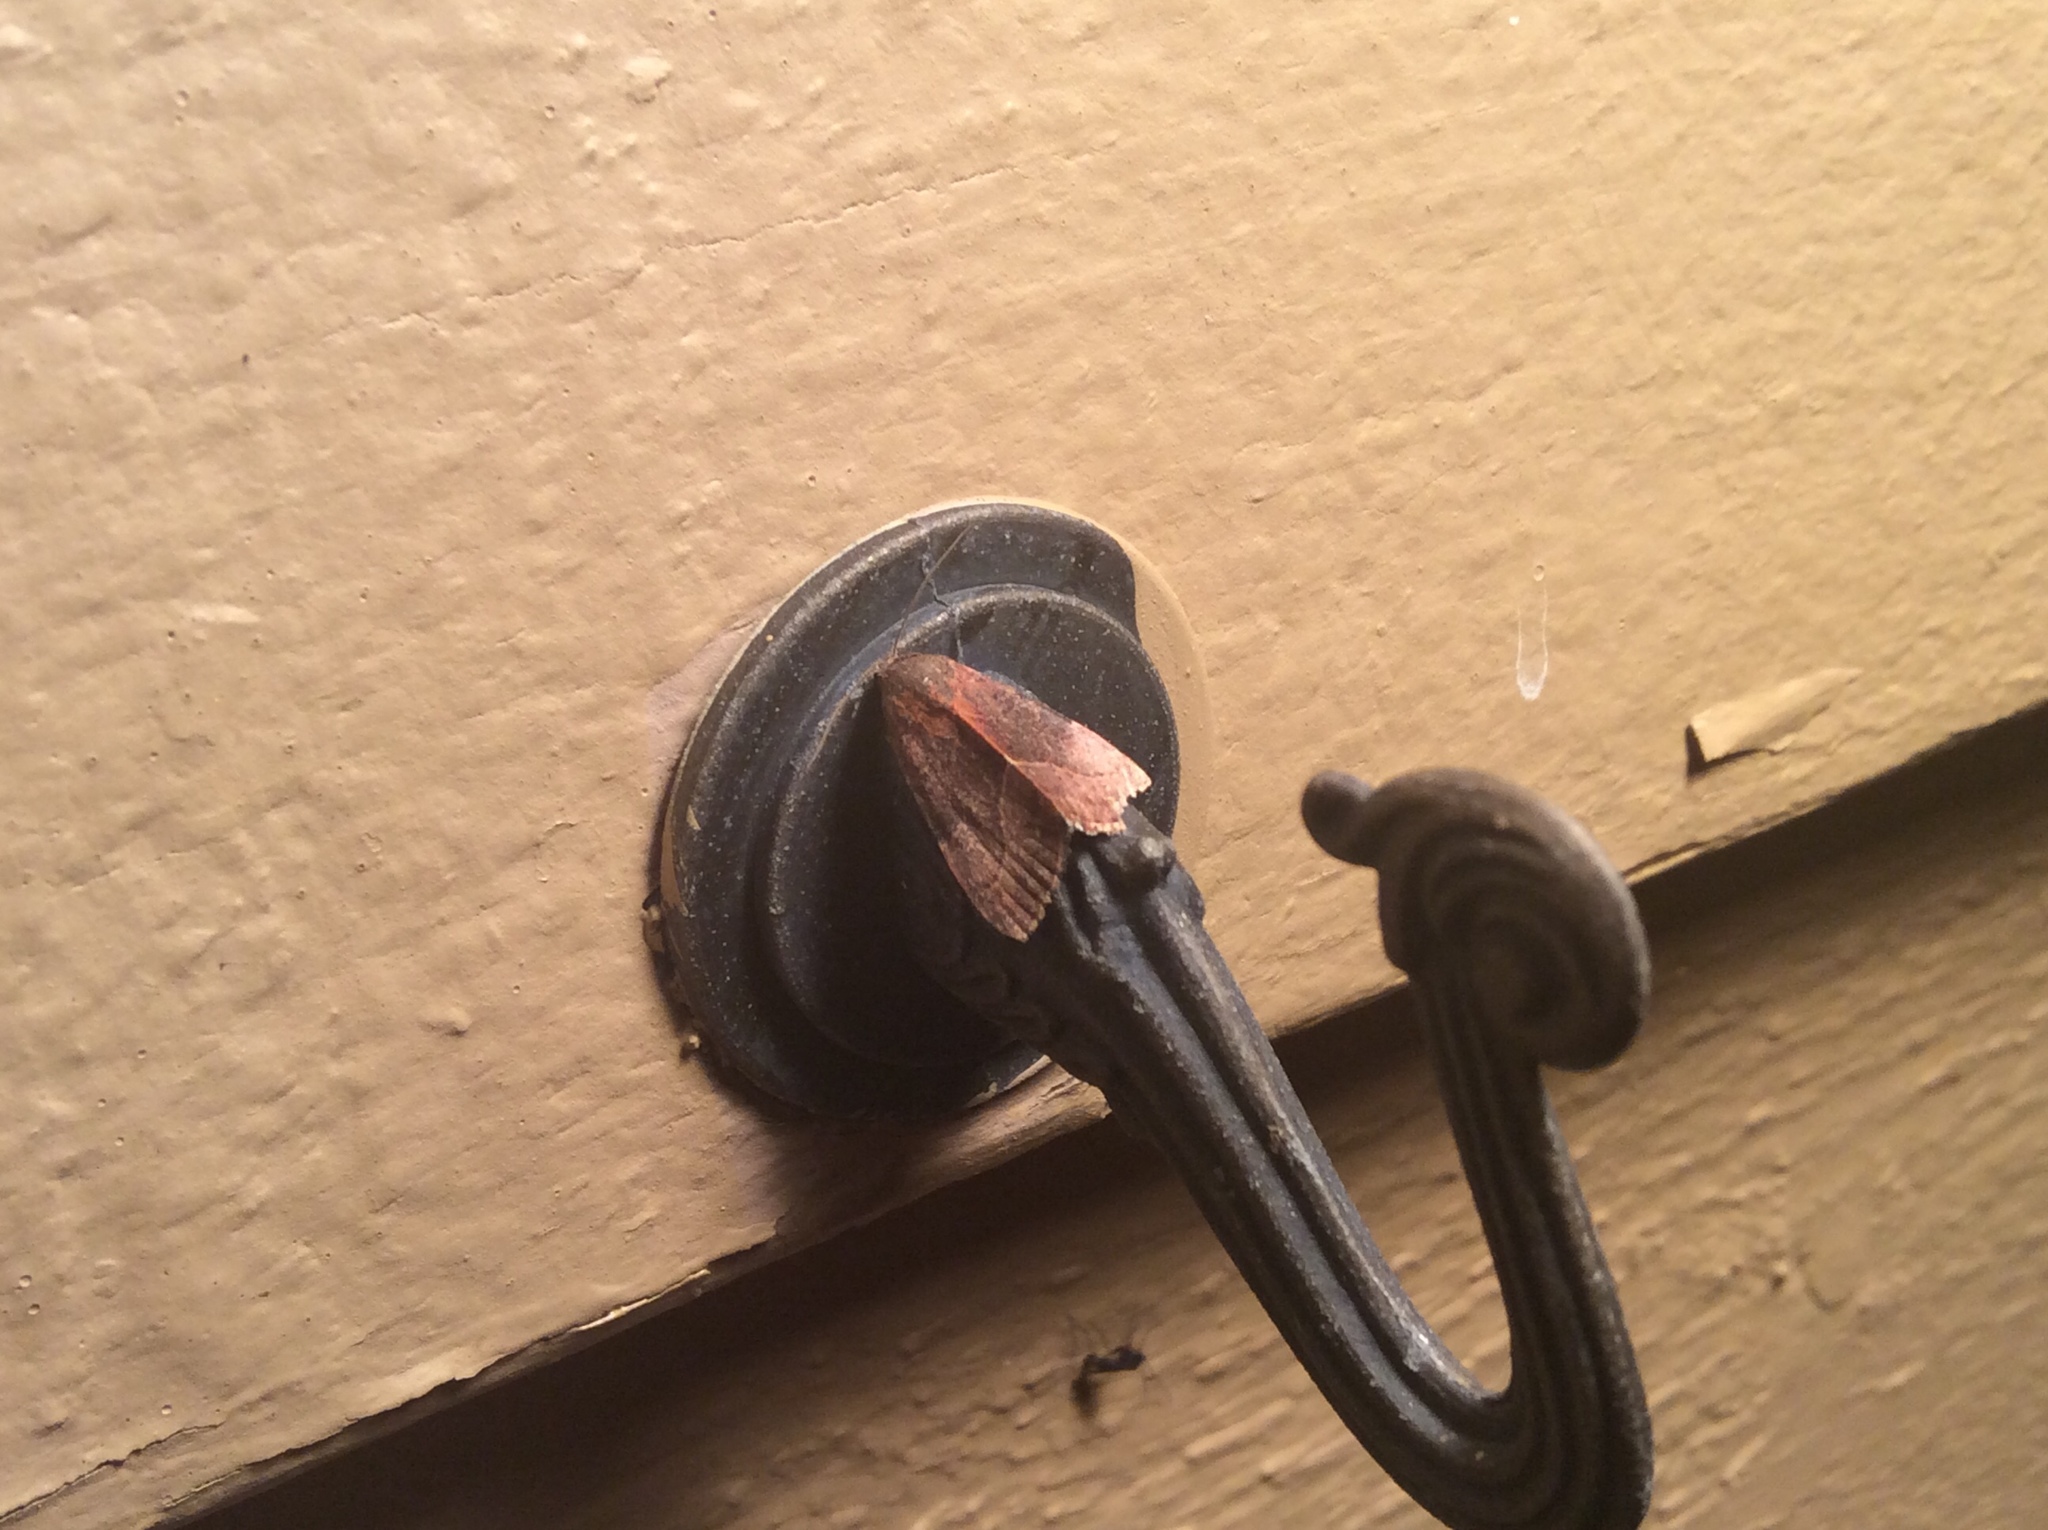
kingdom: Animalia
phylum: Arthropoda
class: Insecta
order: Lepidoptera
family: Noctuidae
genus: Galgula
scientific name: Galgula partita
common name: Wedgeling
